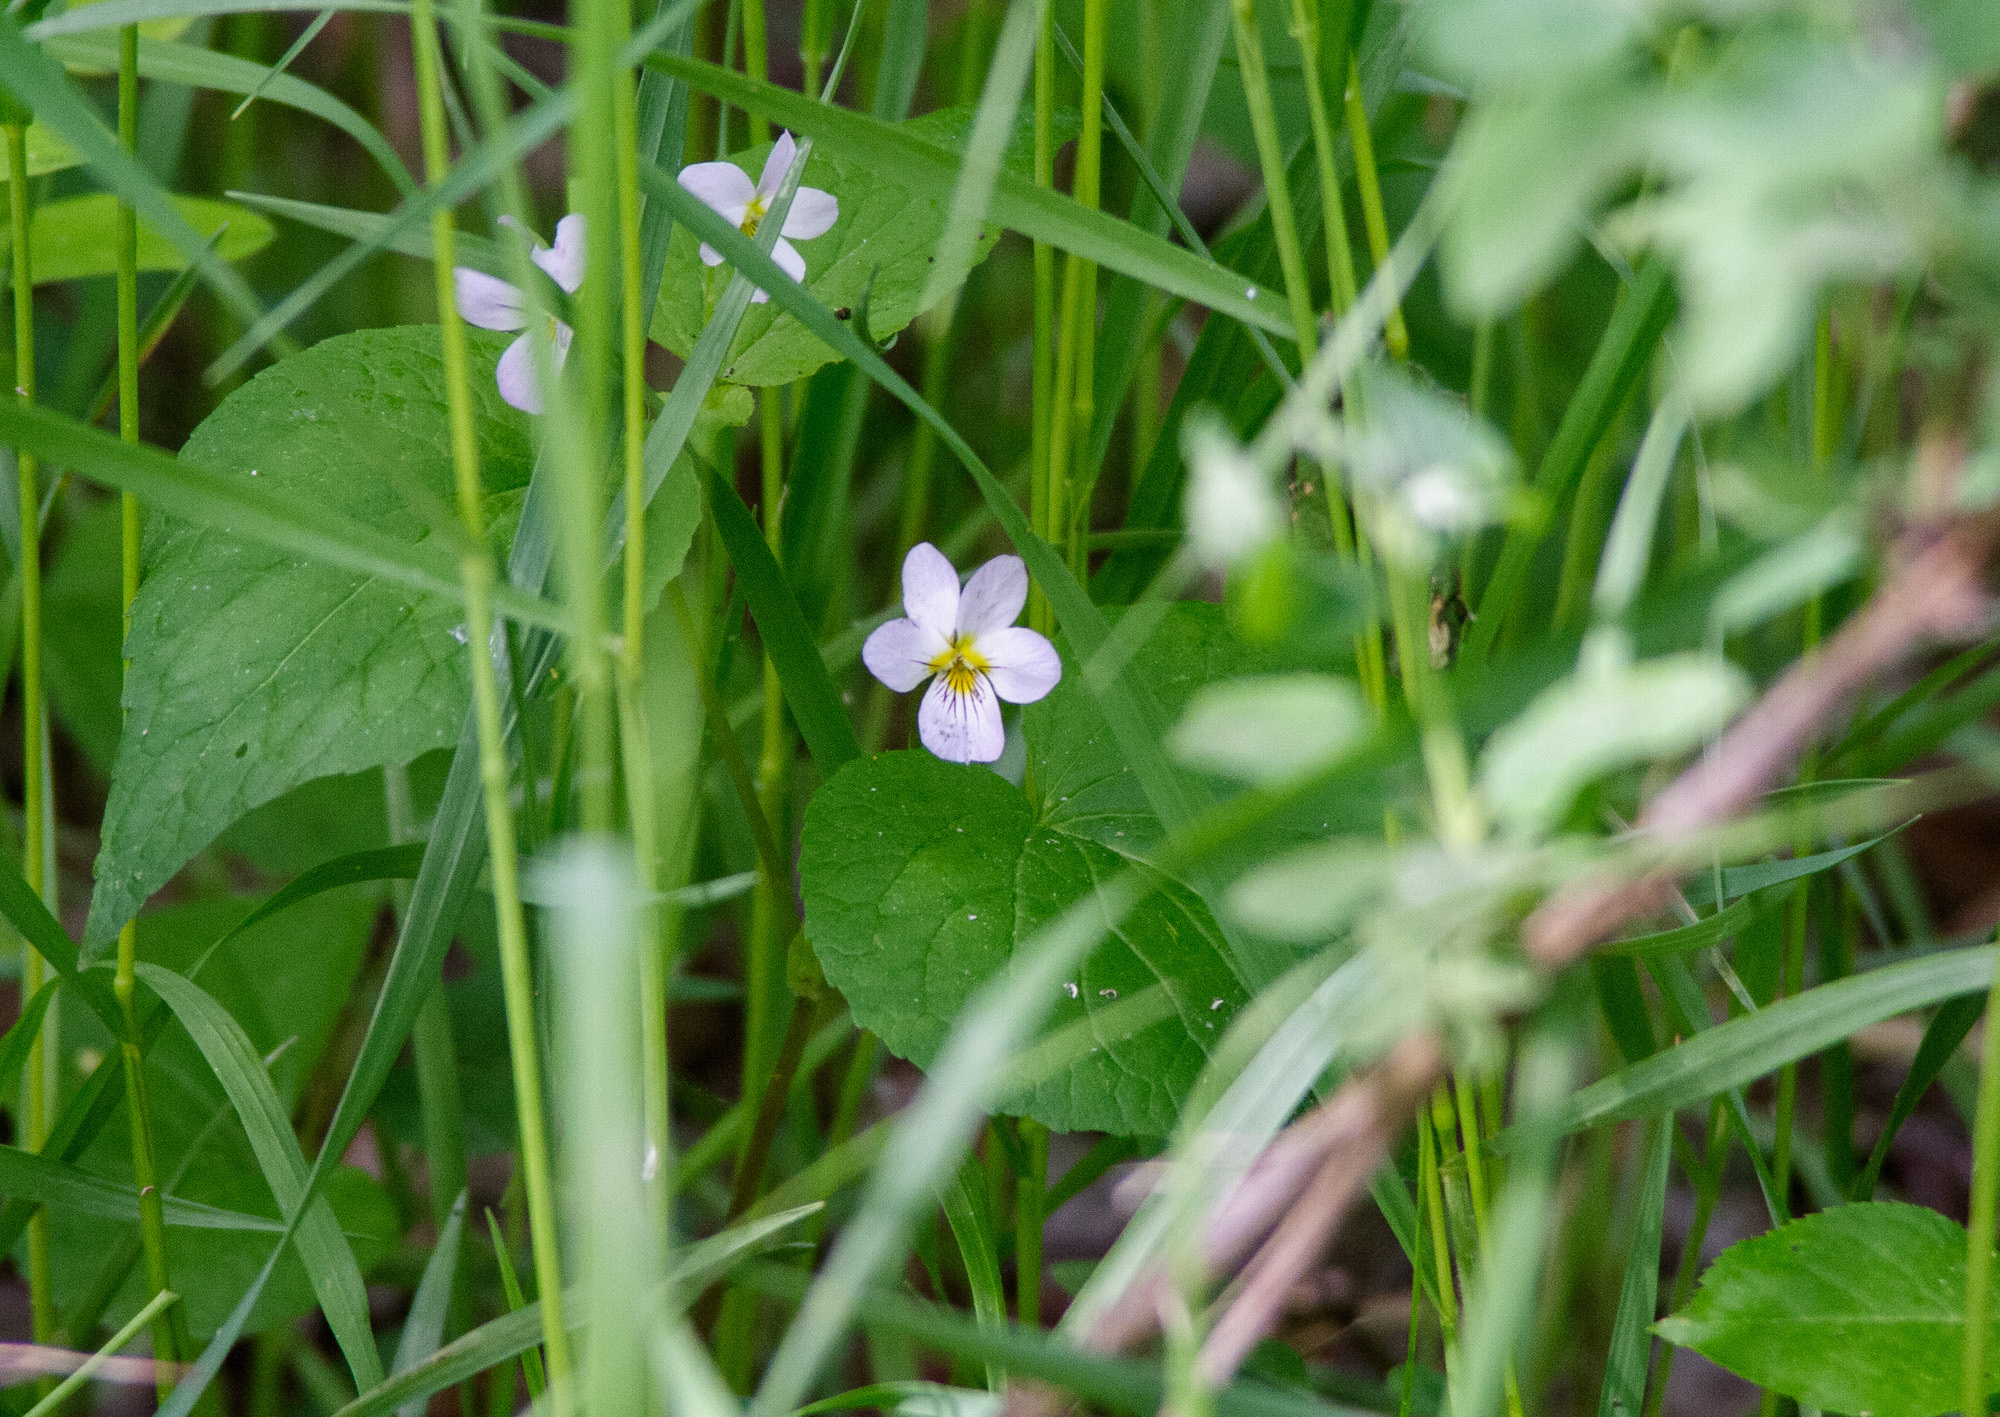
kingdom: Plantae
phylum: Tracheophyta
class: Magnoliopsida
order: Malpighiales
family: Violaceae
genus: Viola
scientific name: Viola canadensis
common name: Canada violet
